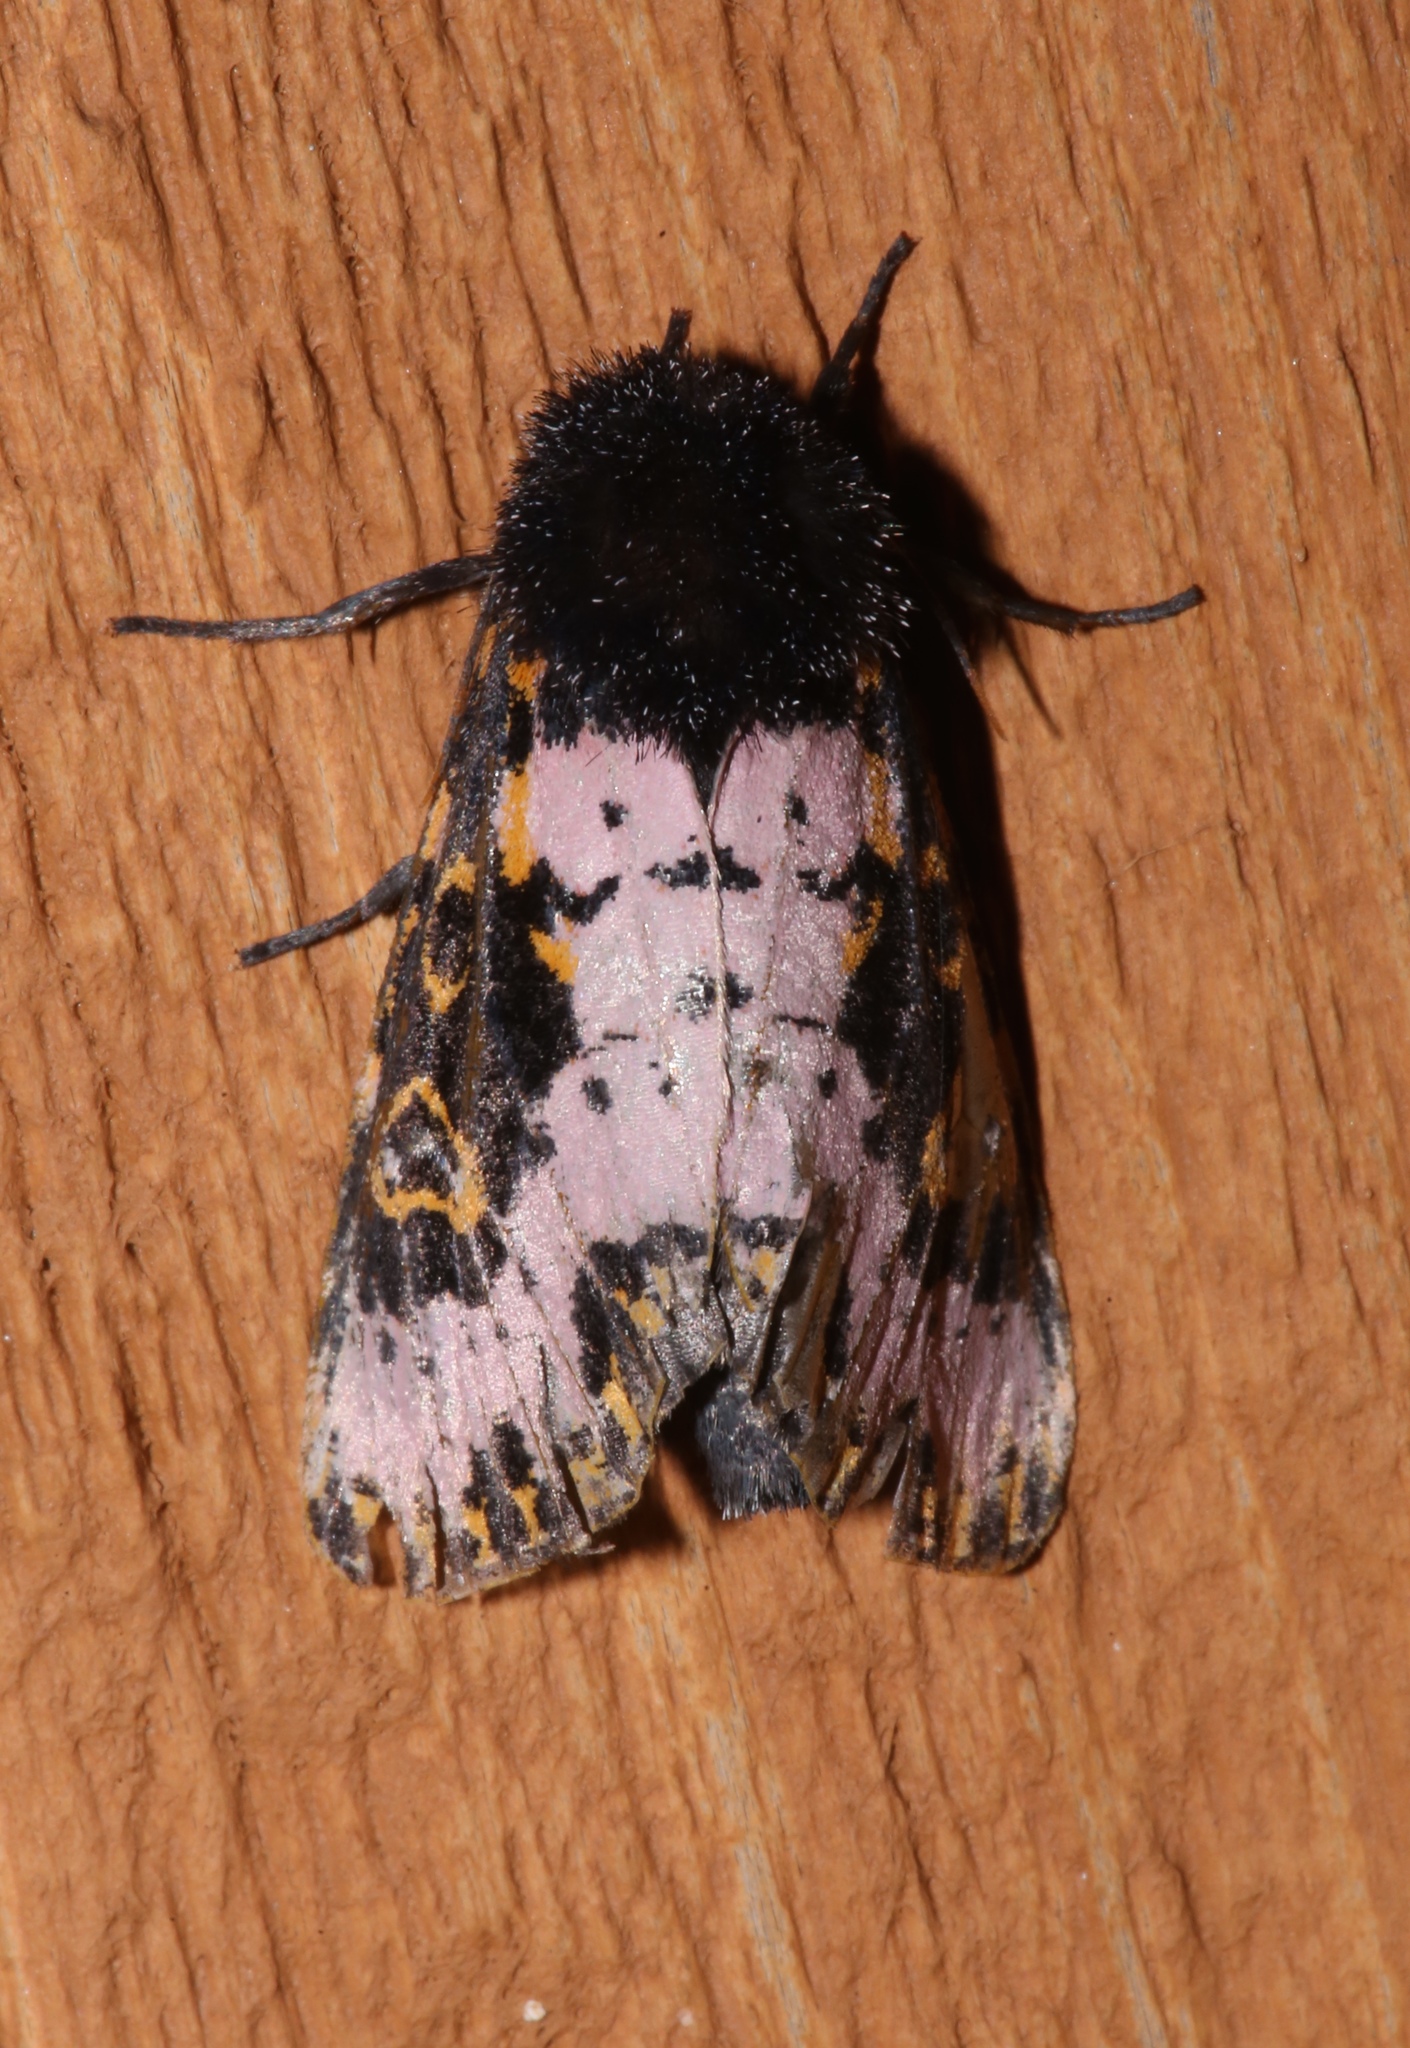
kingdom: Animalia
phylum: Arthropoda
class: Insecta
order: Lepidoptera
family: Noctuidae
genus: Xanthopastis
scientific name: Xanthopastis regnatrix
